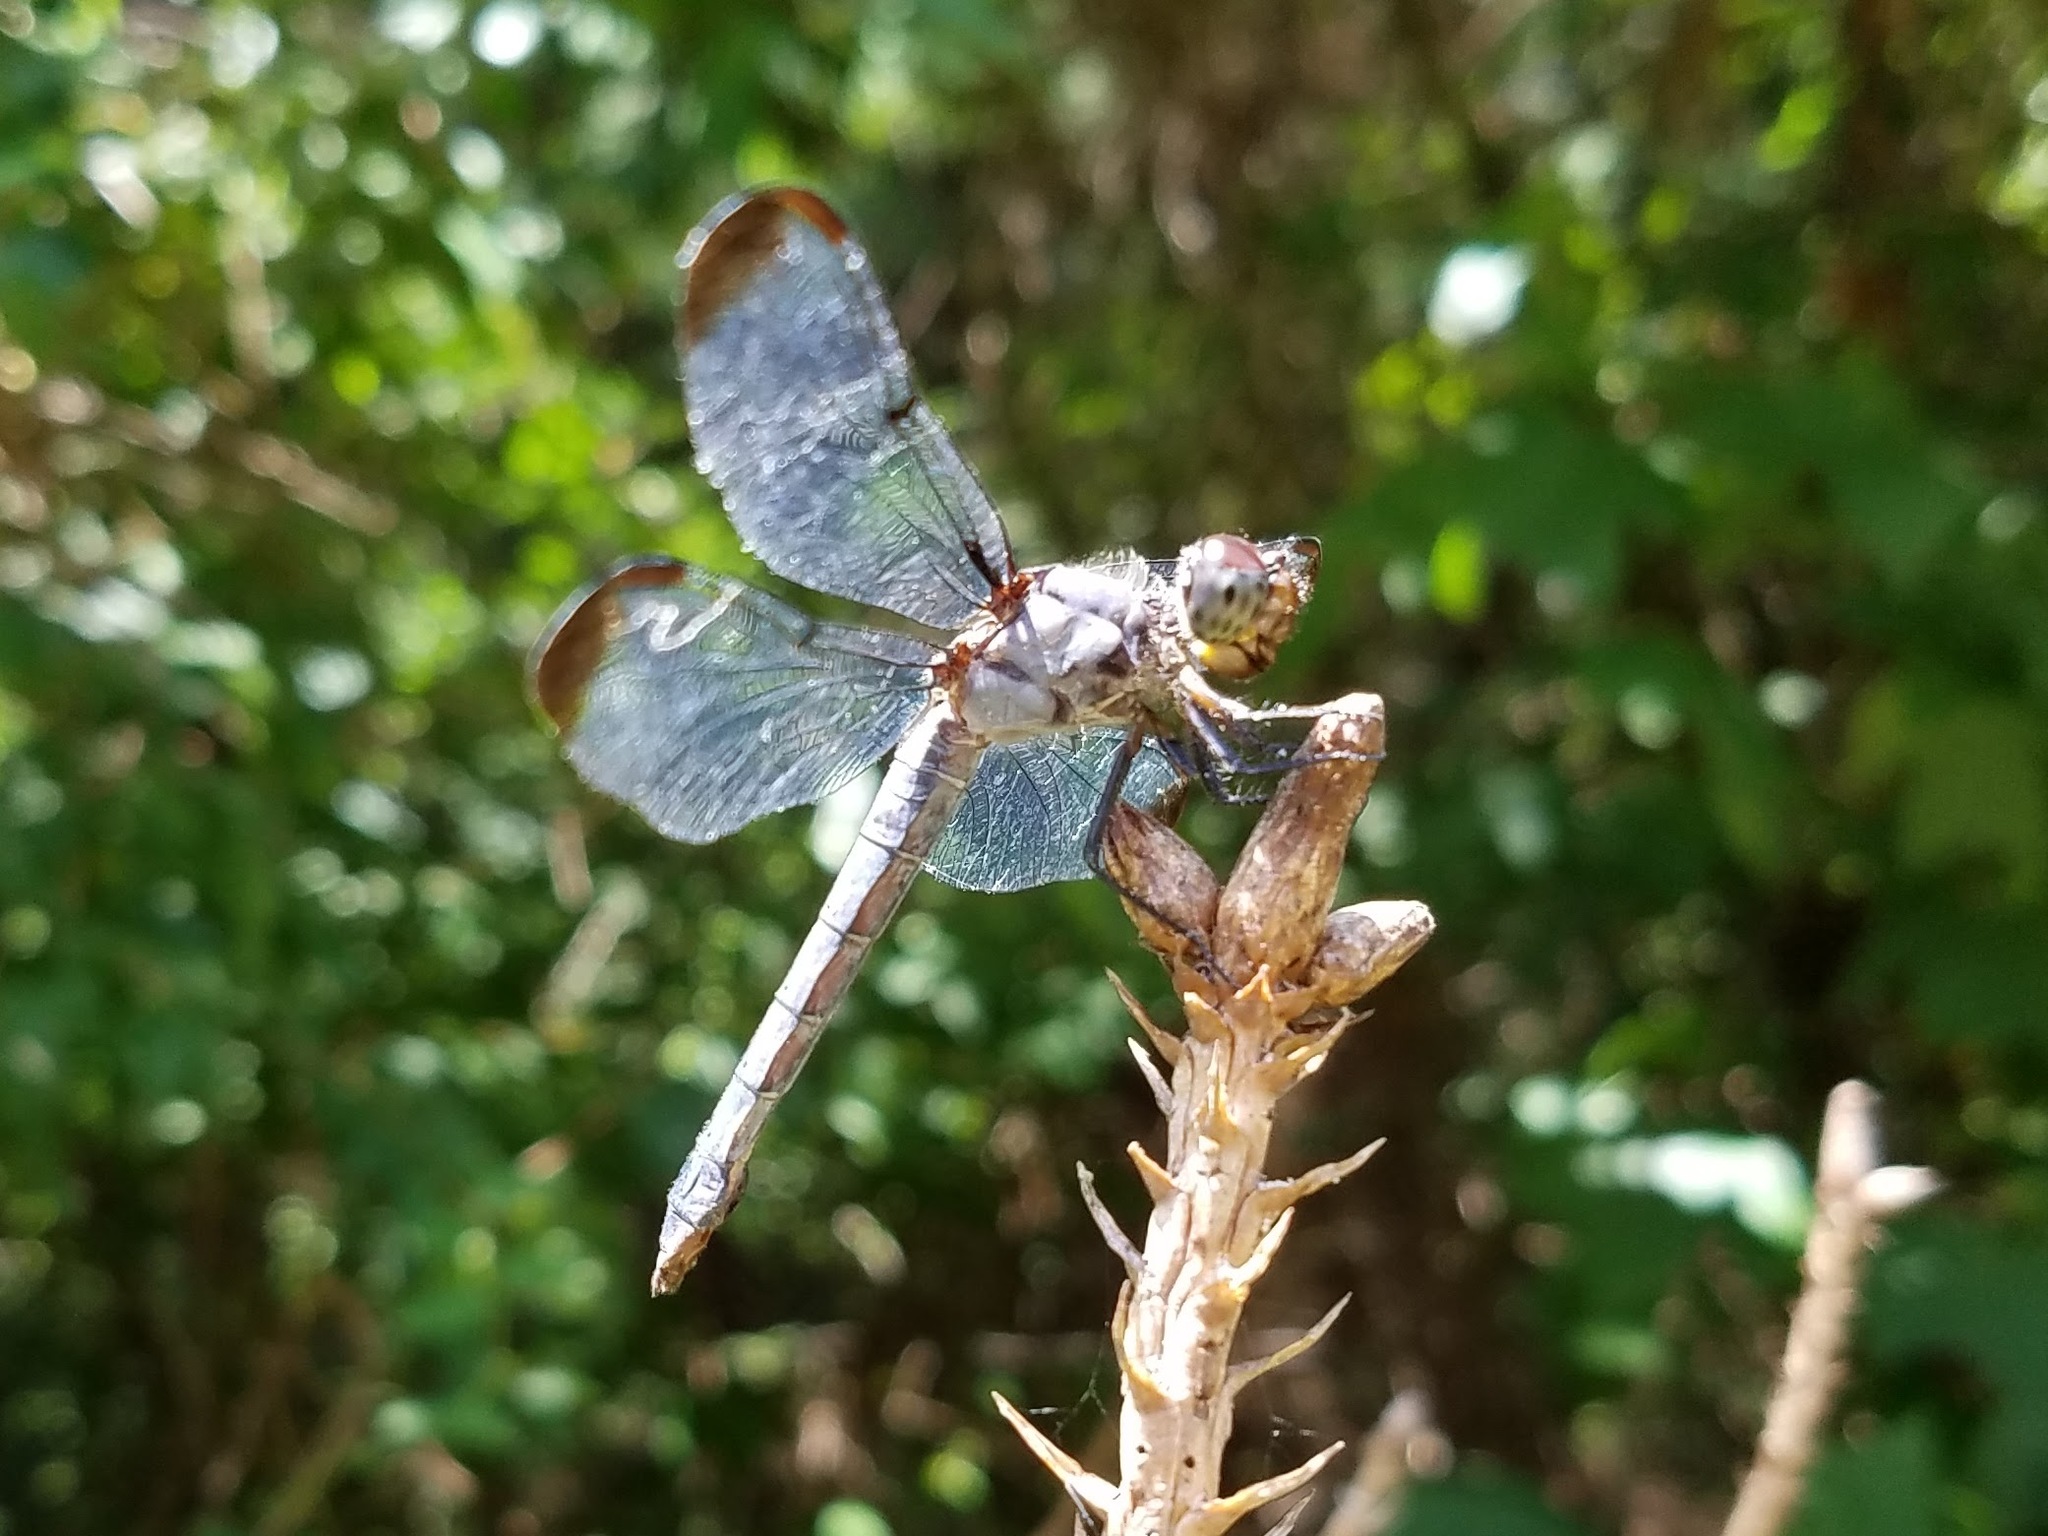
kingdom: Animalia
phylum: Arthropoda
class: Insecta
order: Odonata
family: Libellulidae
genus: Libellula
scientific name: Libellula incesta
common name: Slaty skimmer
